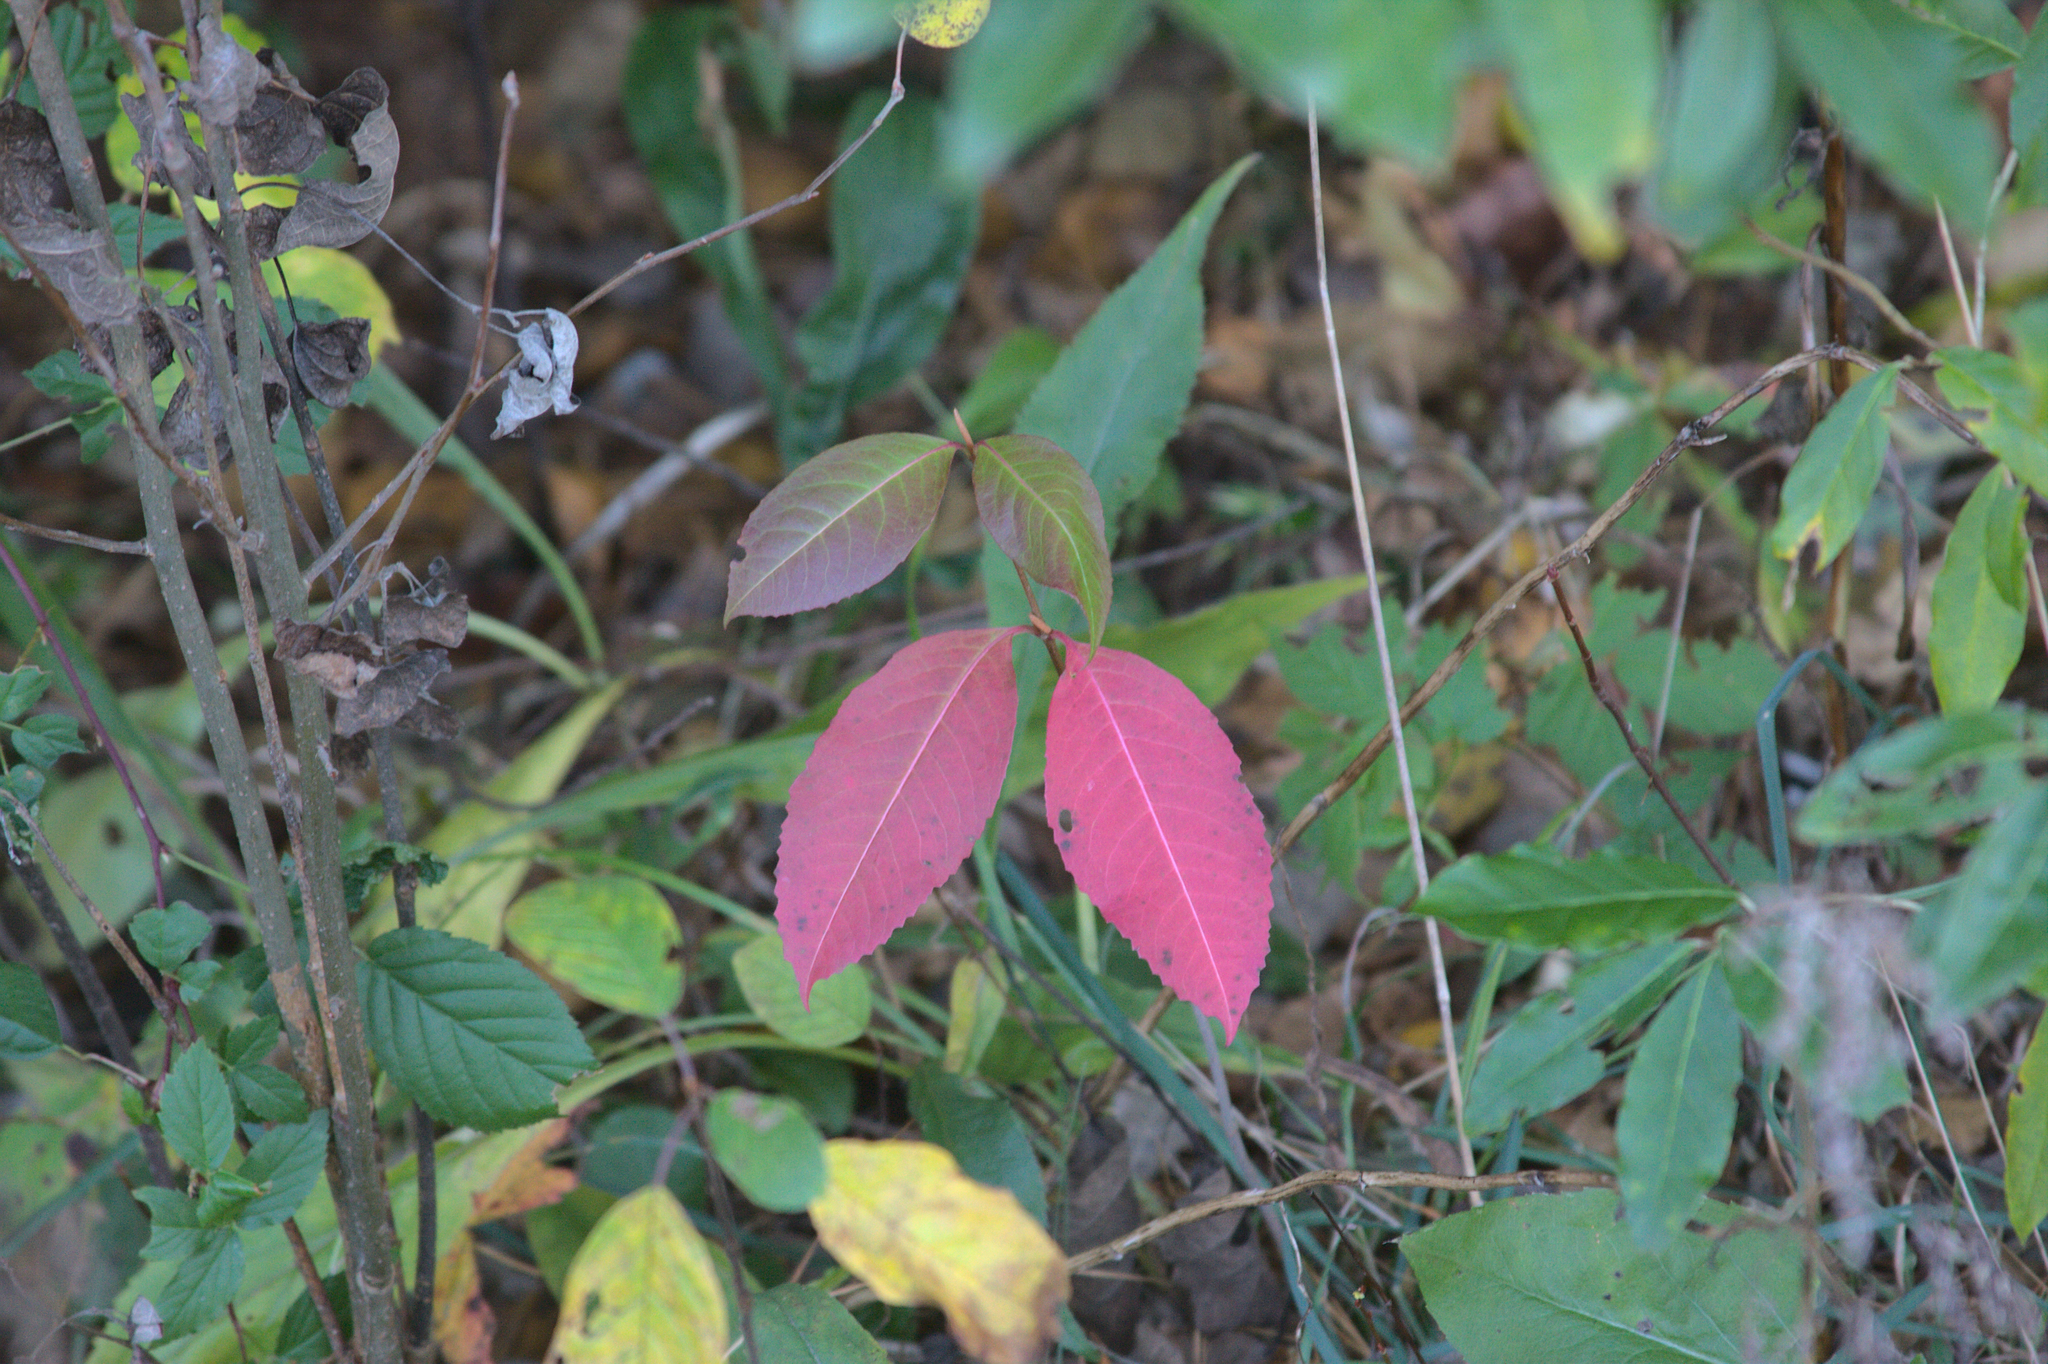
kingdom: Plantae
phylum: Tracheophyta
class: Magnoliopsida
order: Dipsacales
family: Viburnaceae
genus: Viburnum
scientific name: Viburnum cassinoides
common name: Swamp haw
